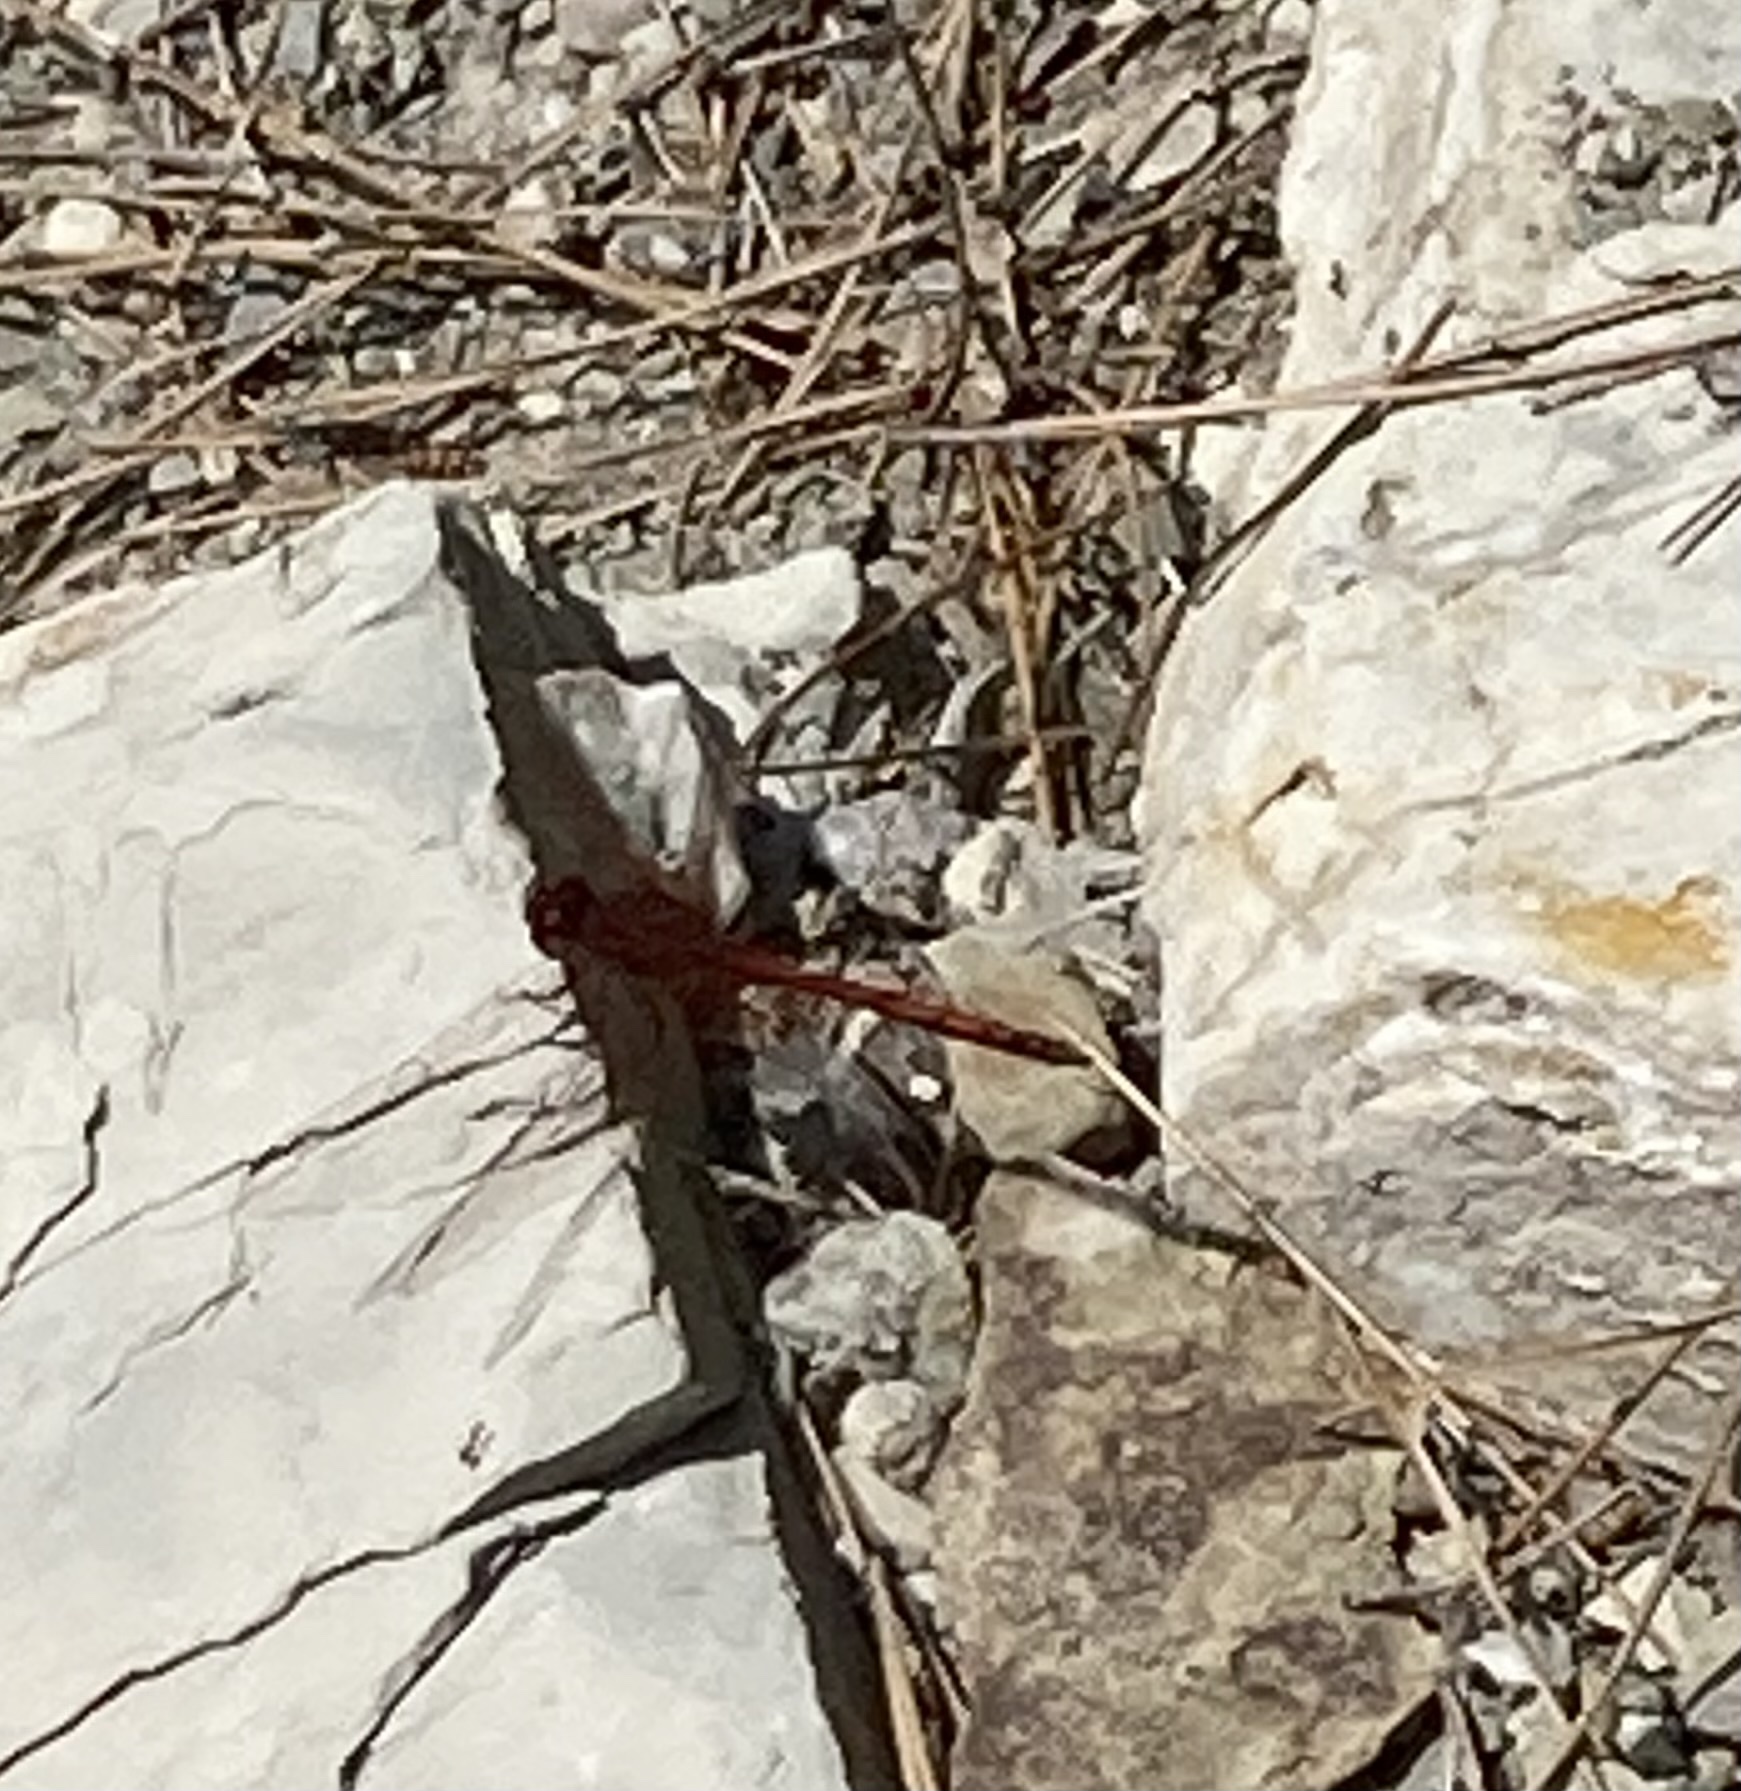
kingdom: Animalia
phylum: Arthropoda
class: Insecta
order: Odonata
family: Libellulidae
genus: Trithemis
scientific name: Trithemis arteriosa
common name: Red-veined dropwing
